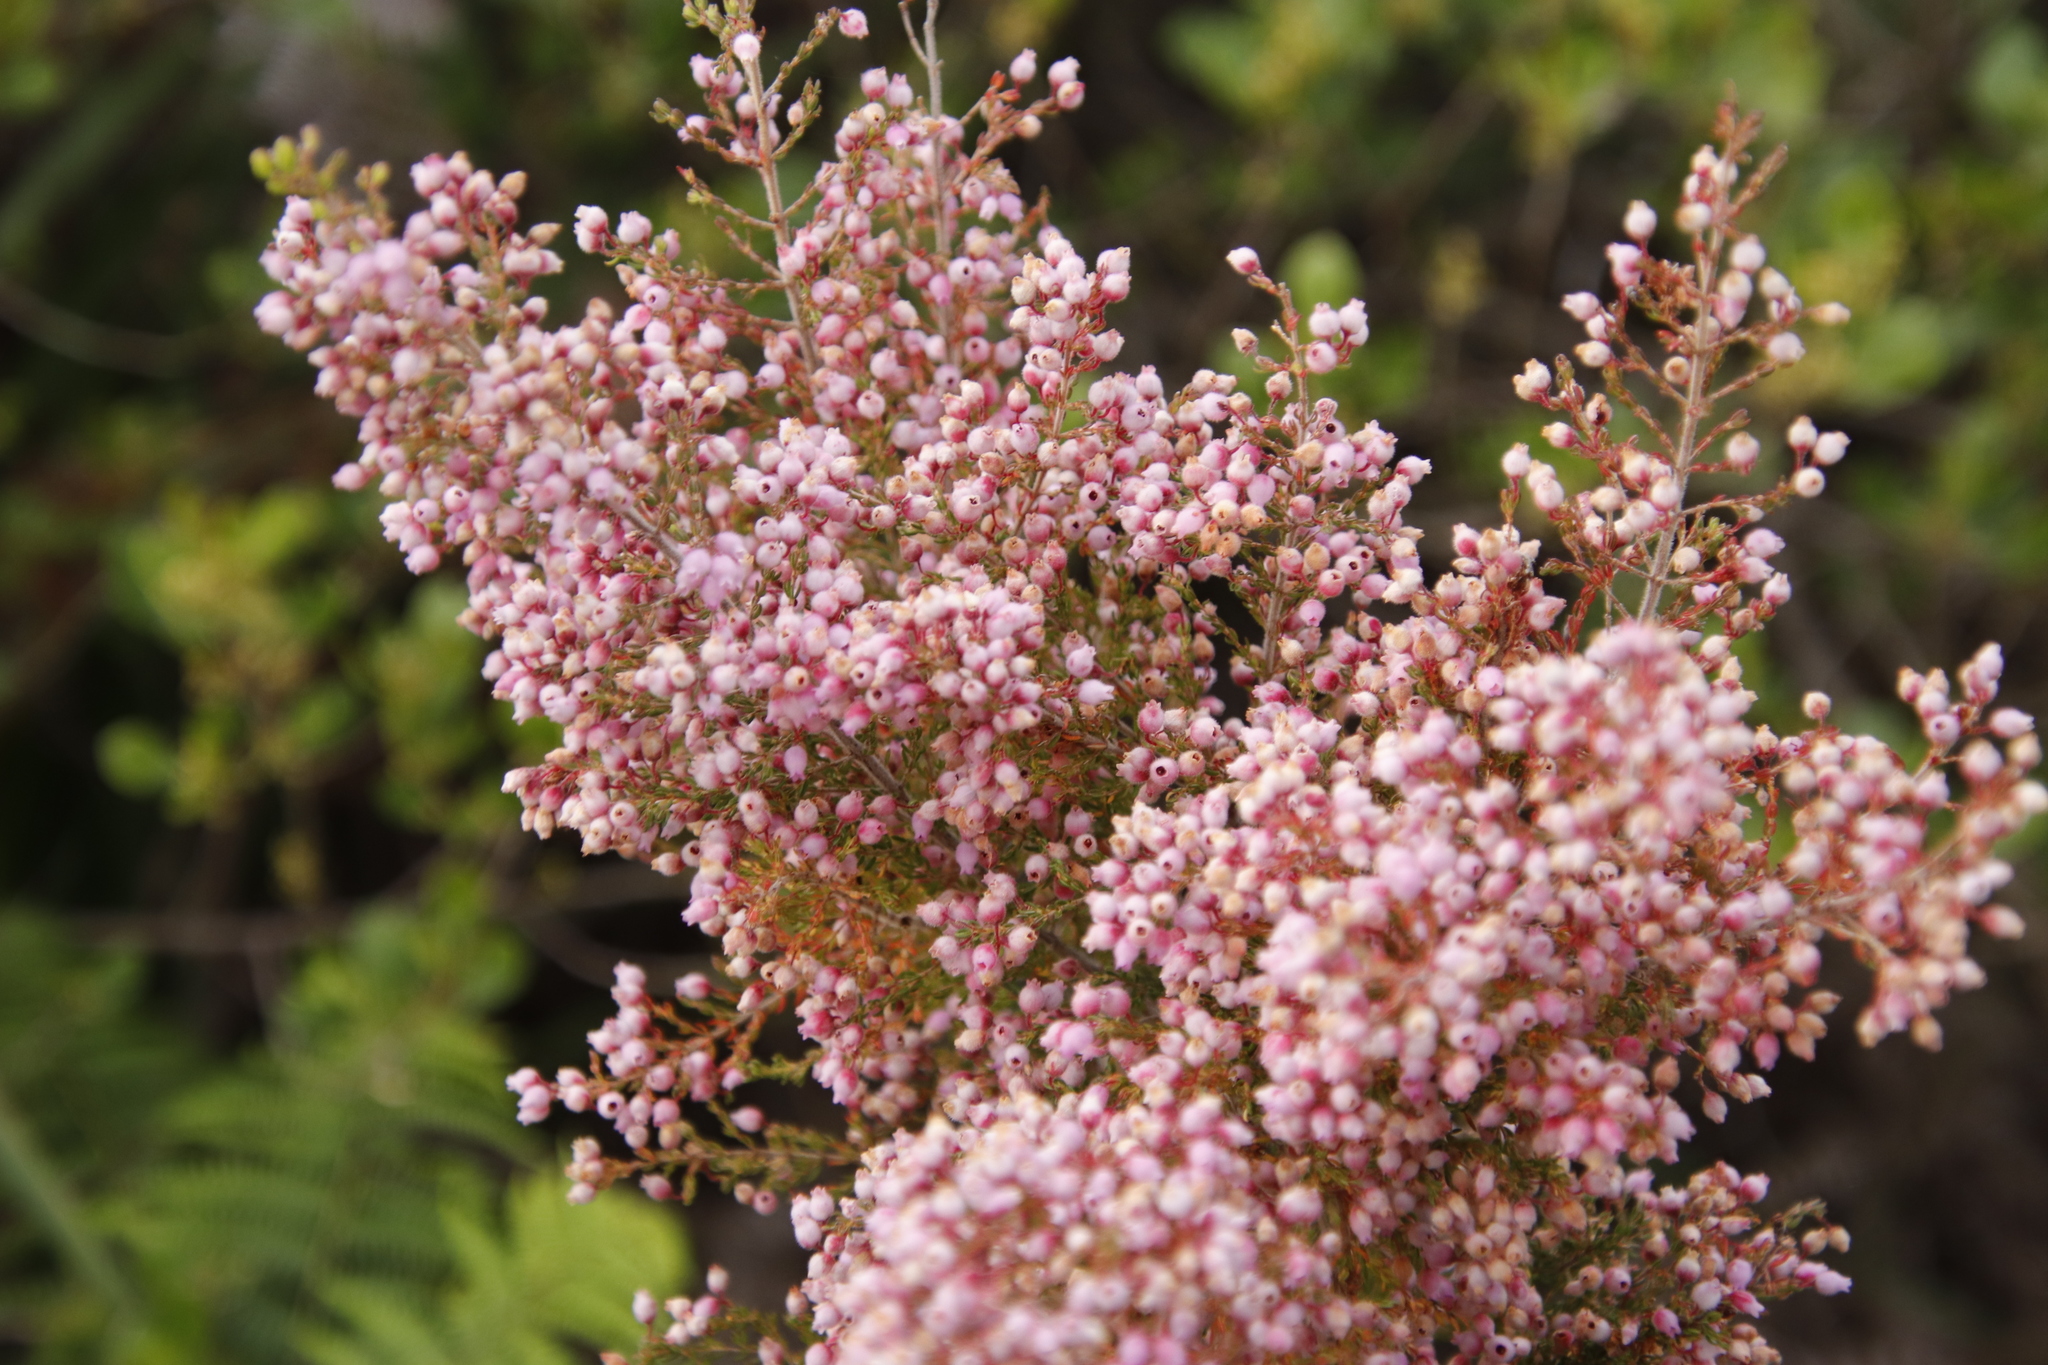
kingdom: Plantae
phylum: Tracheophyta
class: Magnoliopsida
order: Ericales
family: Ericaceae
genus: Erica
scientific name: Erica hirtiflora
